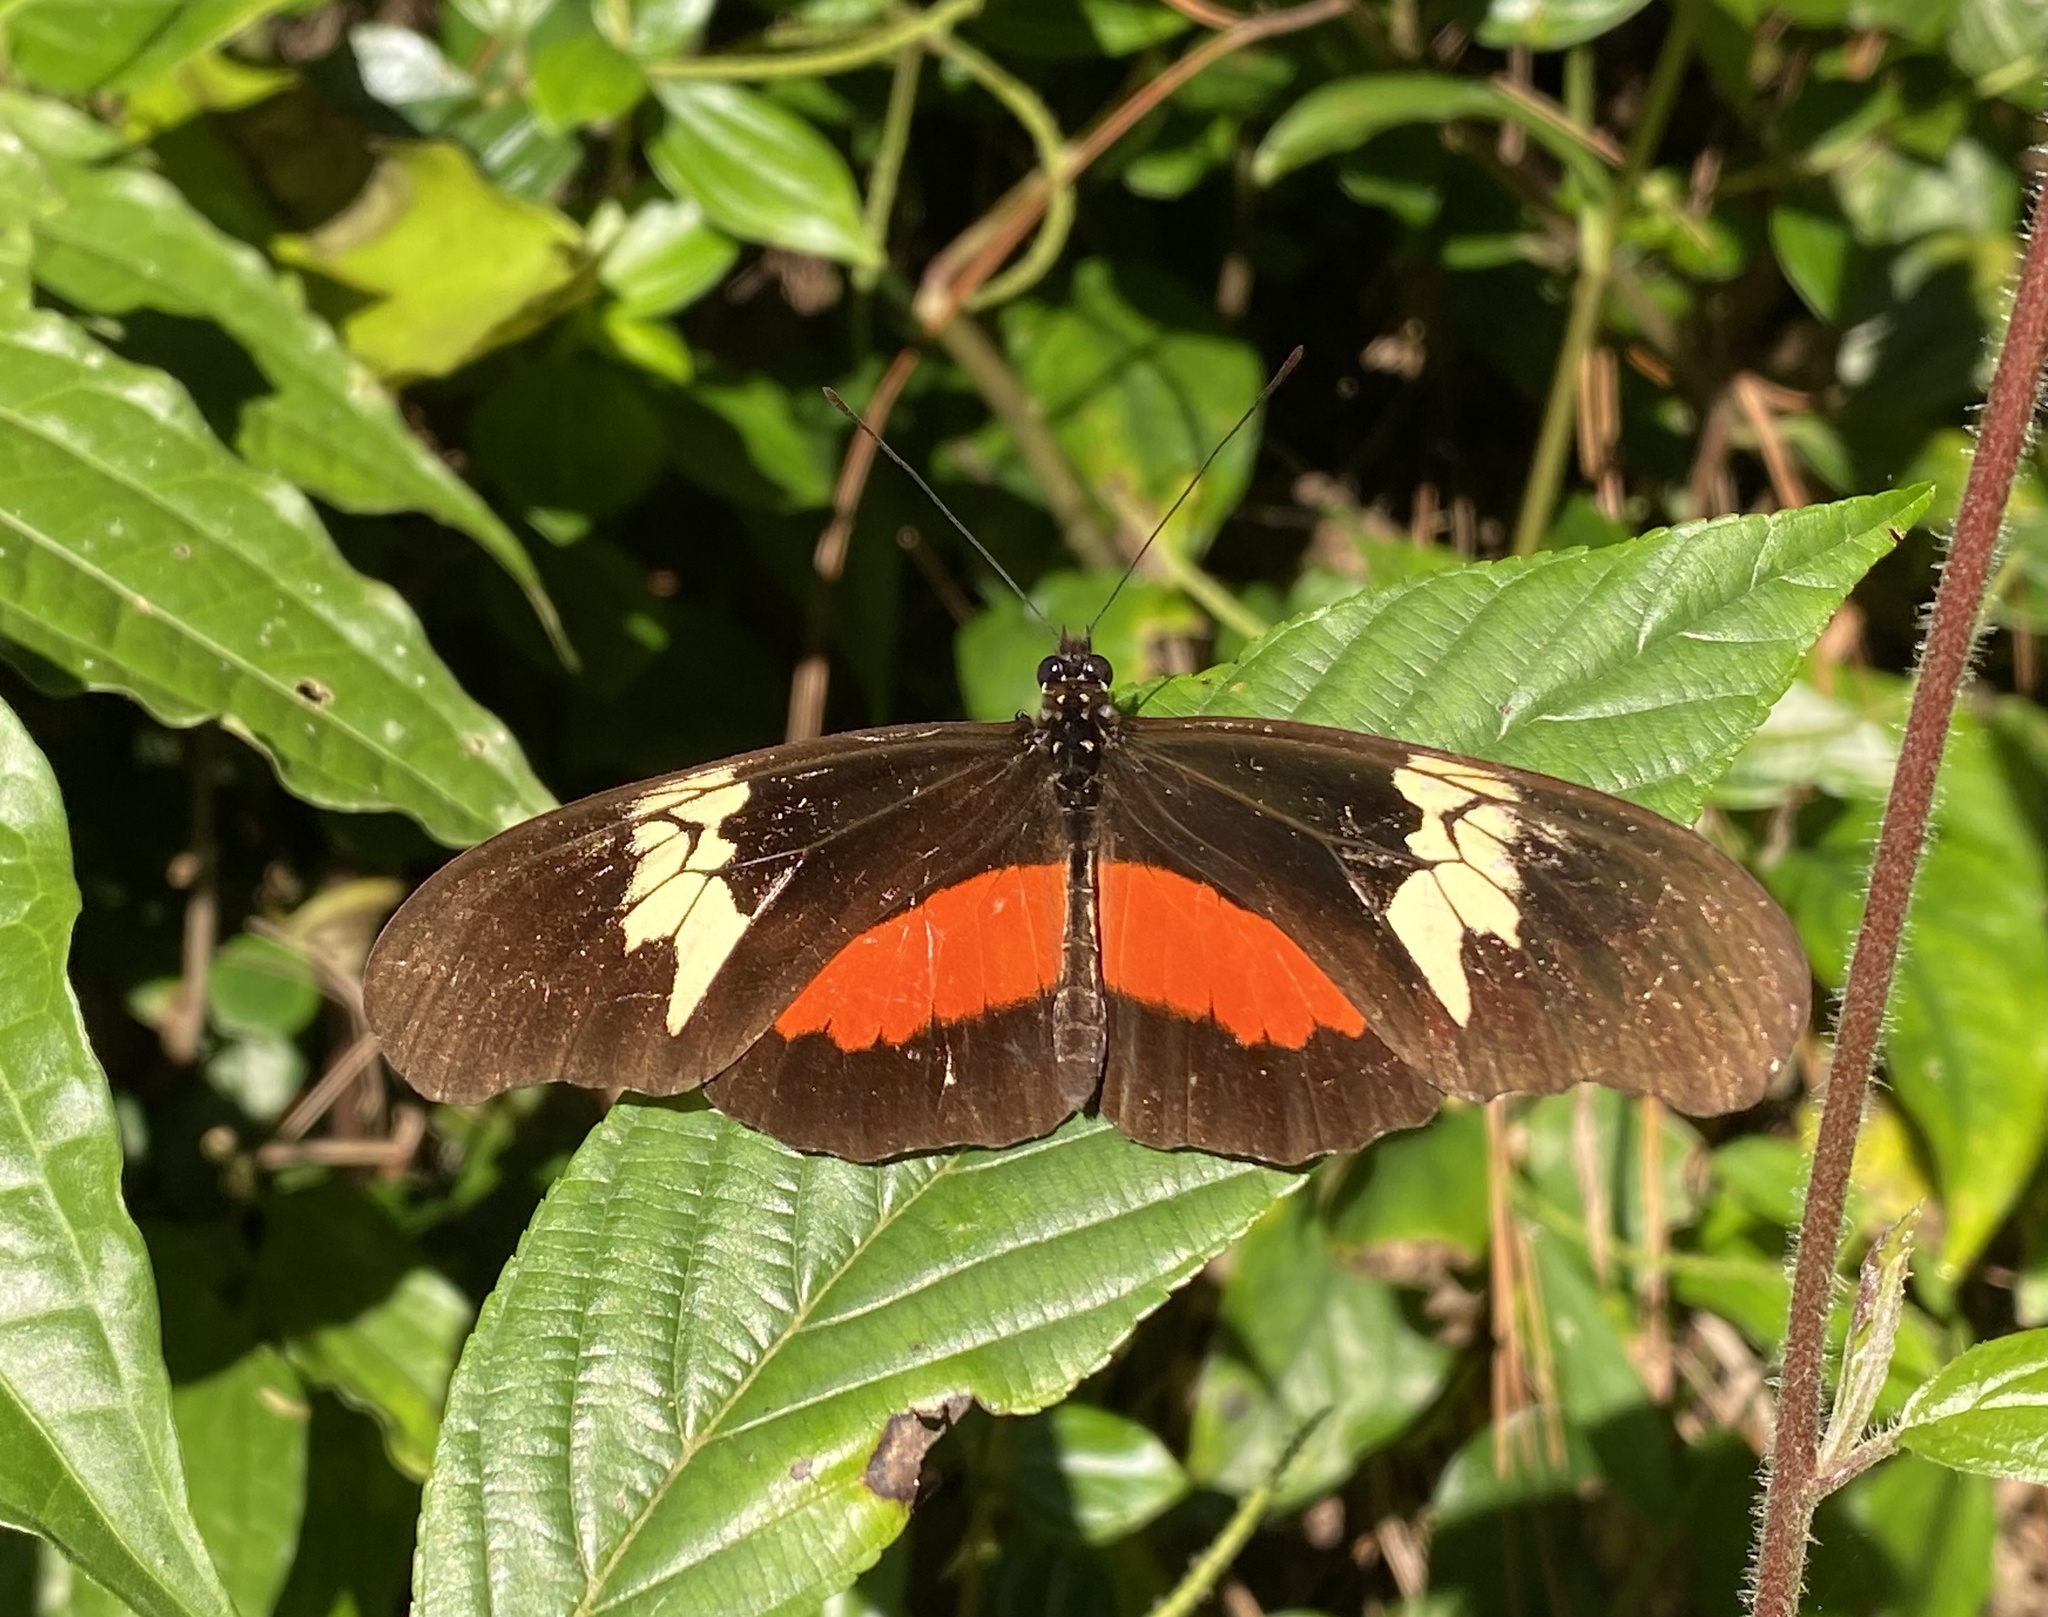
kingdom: Animalia
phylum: Arthropoda
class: Insecta
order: Lepidoptera
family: Nymphalidae
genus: Heliconius
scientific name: Heliconius hortense
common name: Mexican longwing
